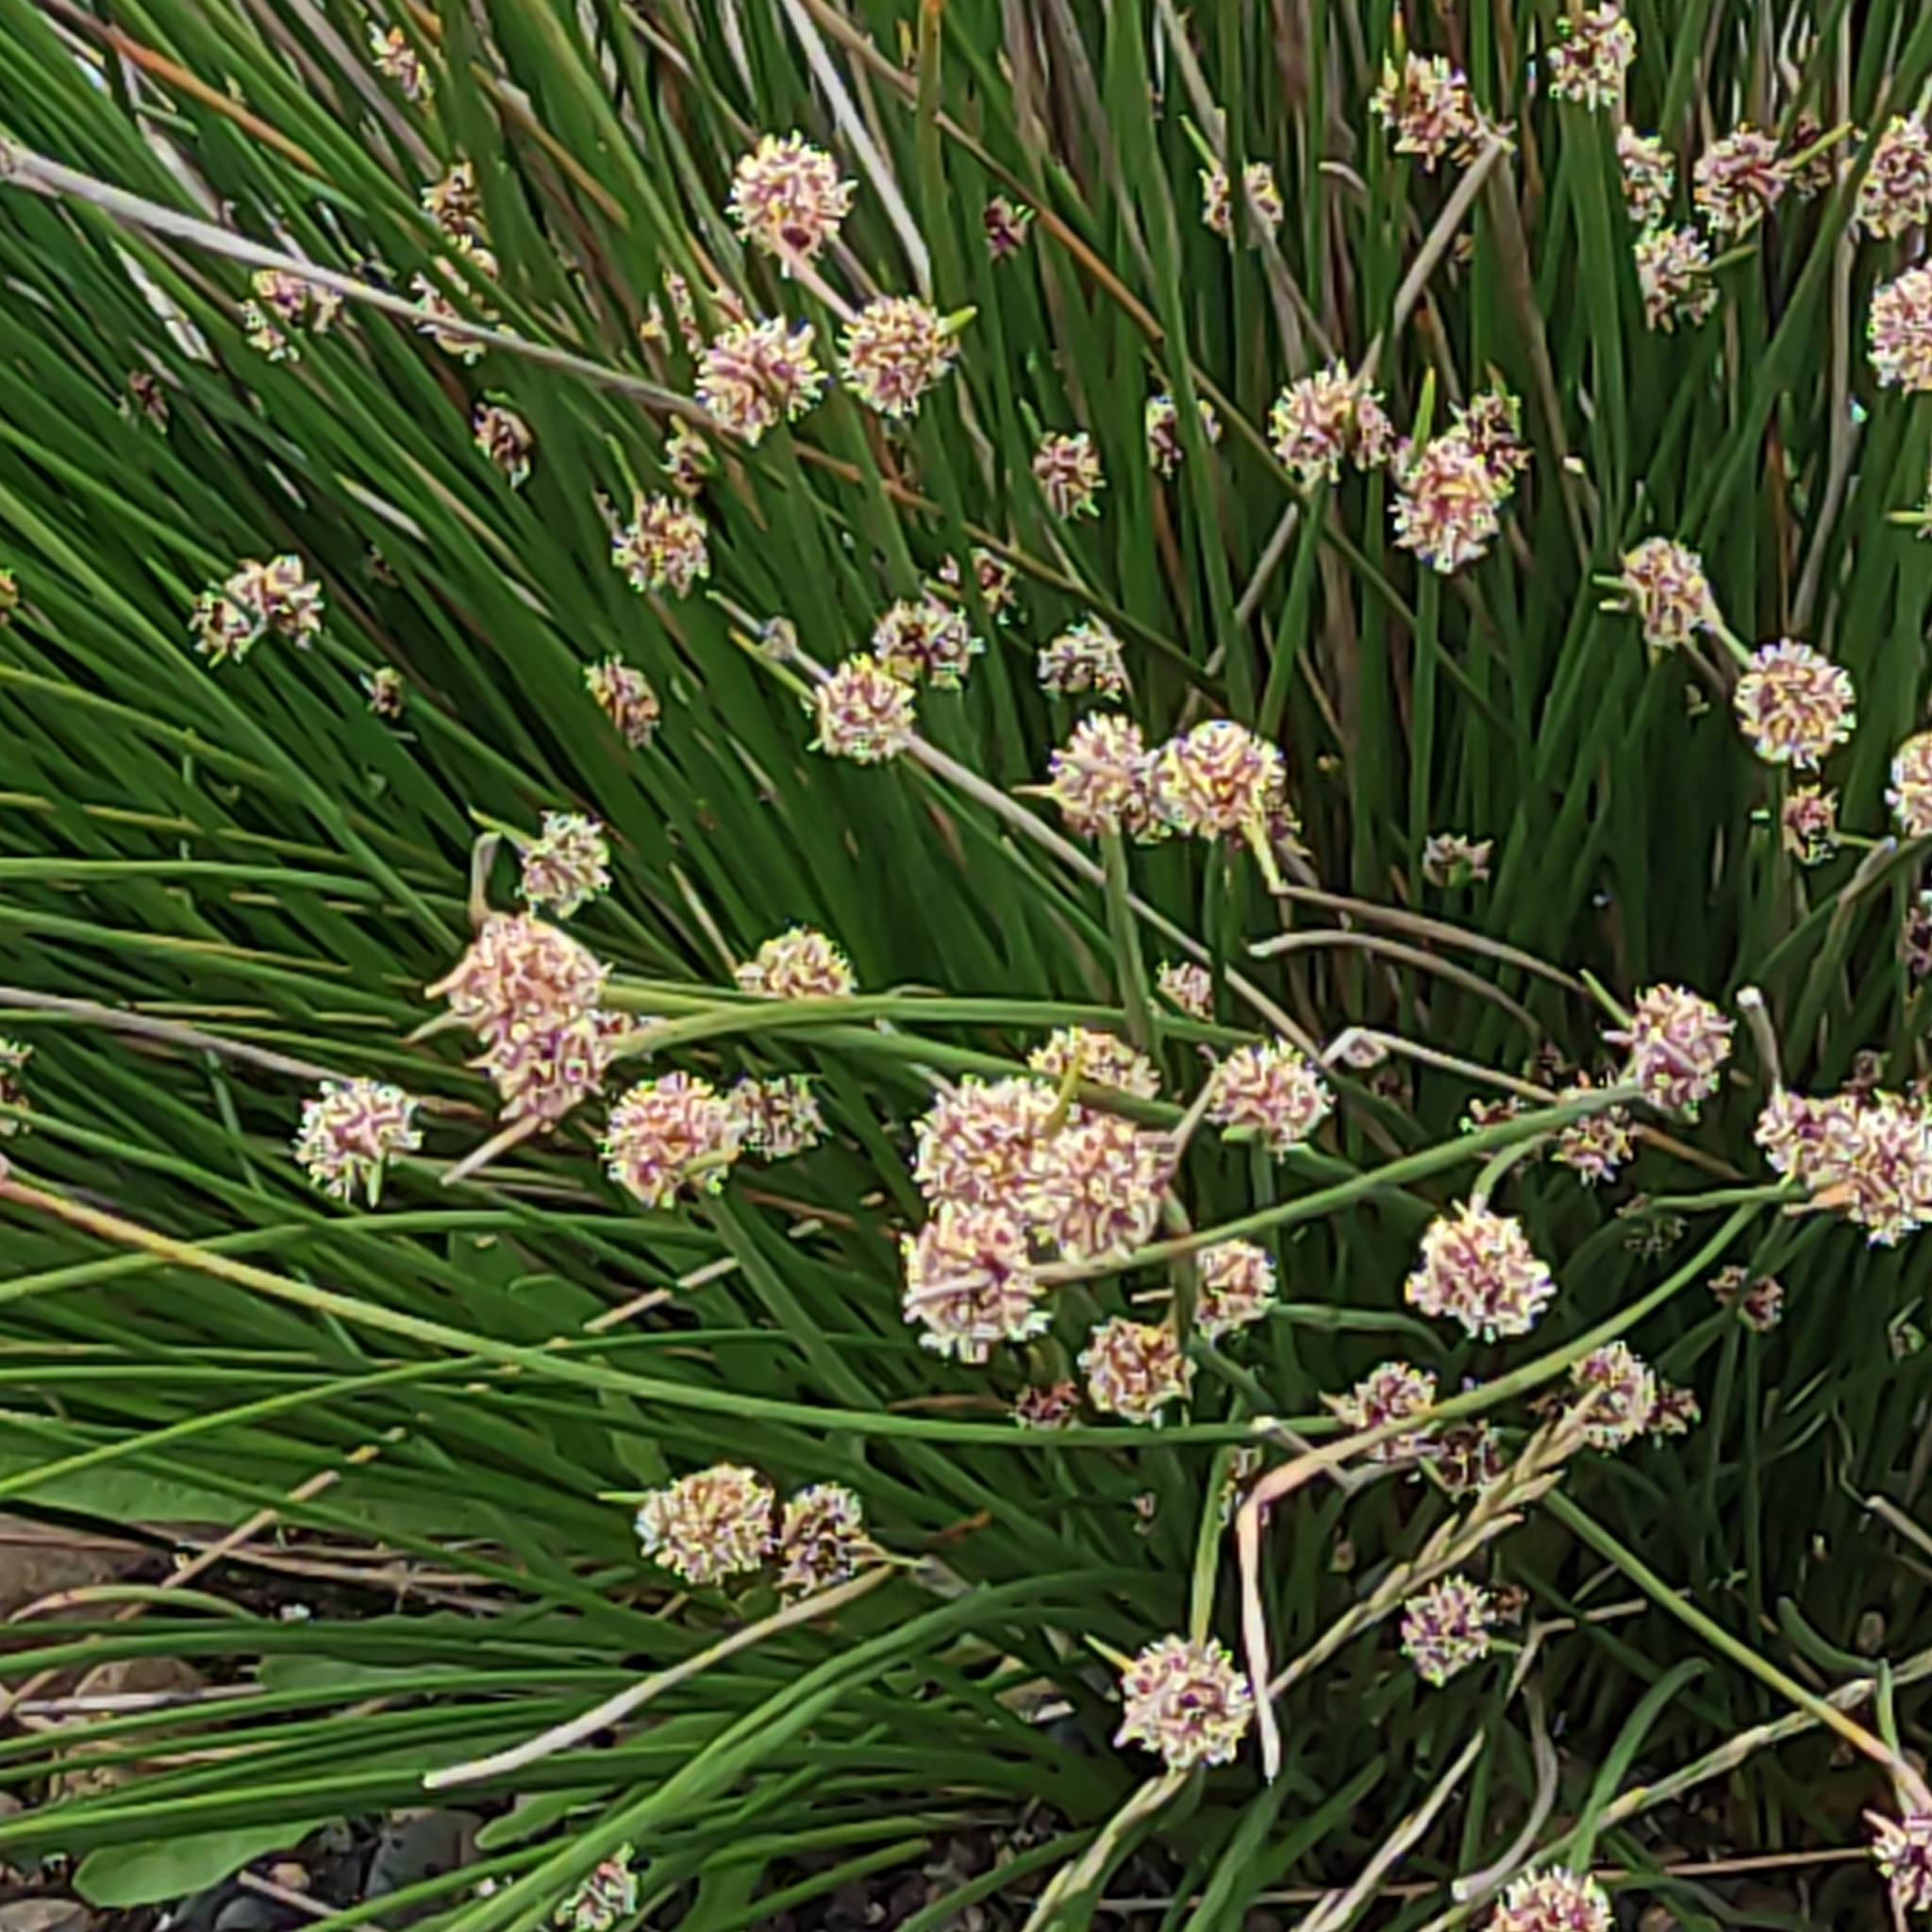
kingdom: Plantae
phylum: Tracheophyta
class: Liliopsida
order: Poales
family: Cyperaceae
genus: Ficinia
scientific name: Ficinia nodosa
